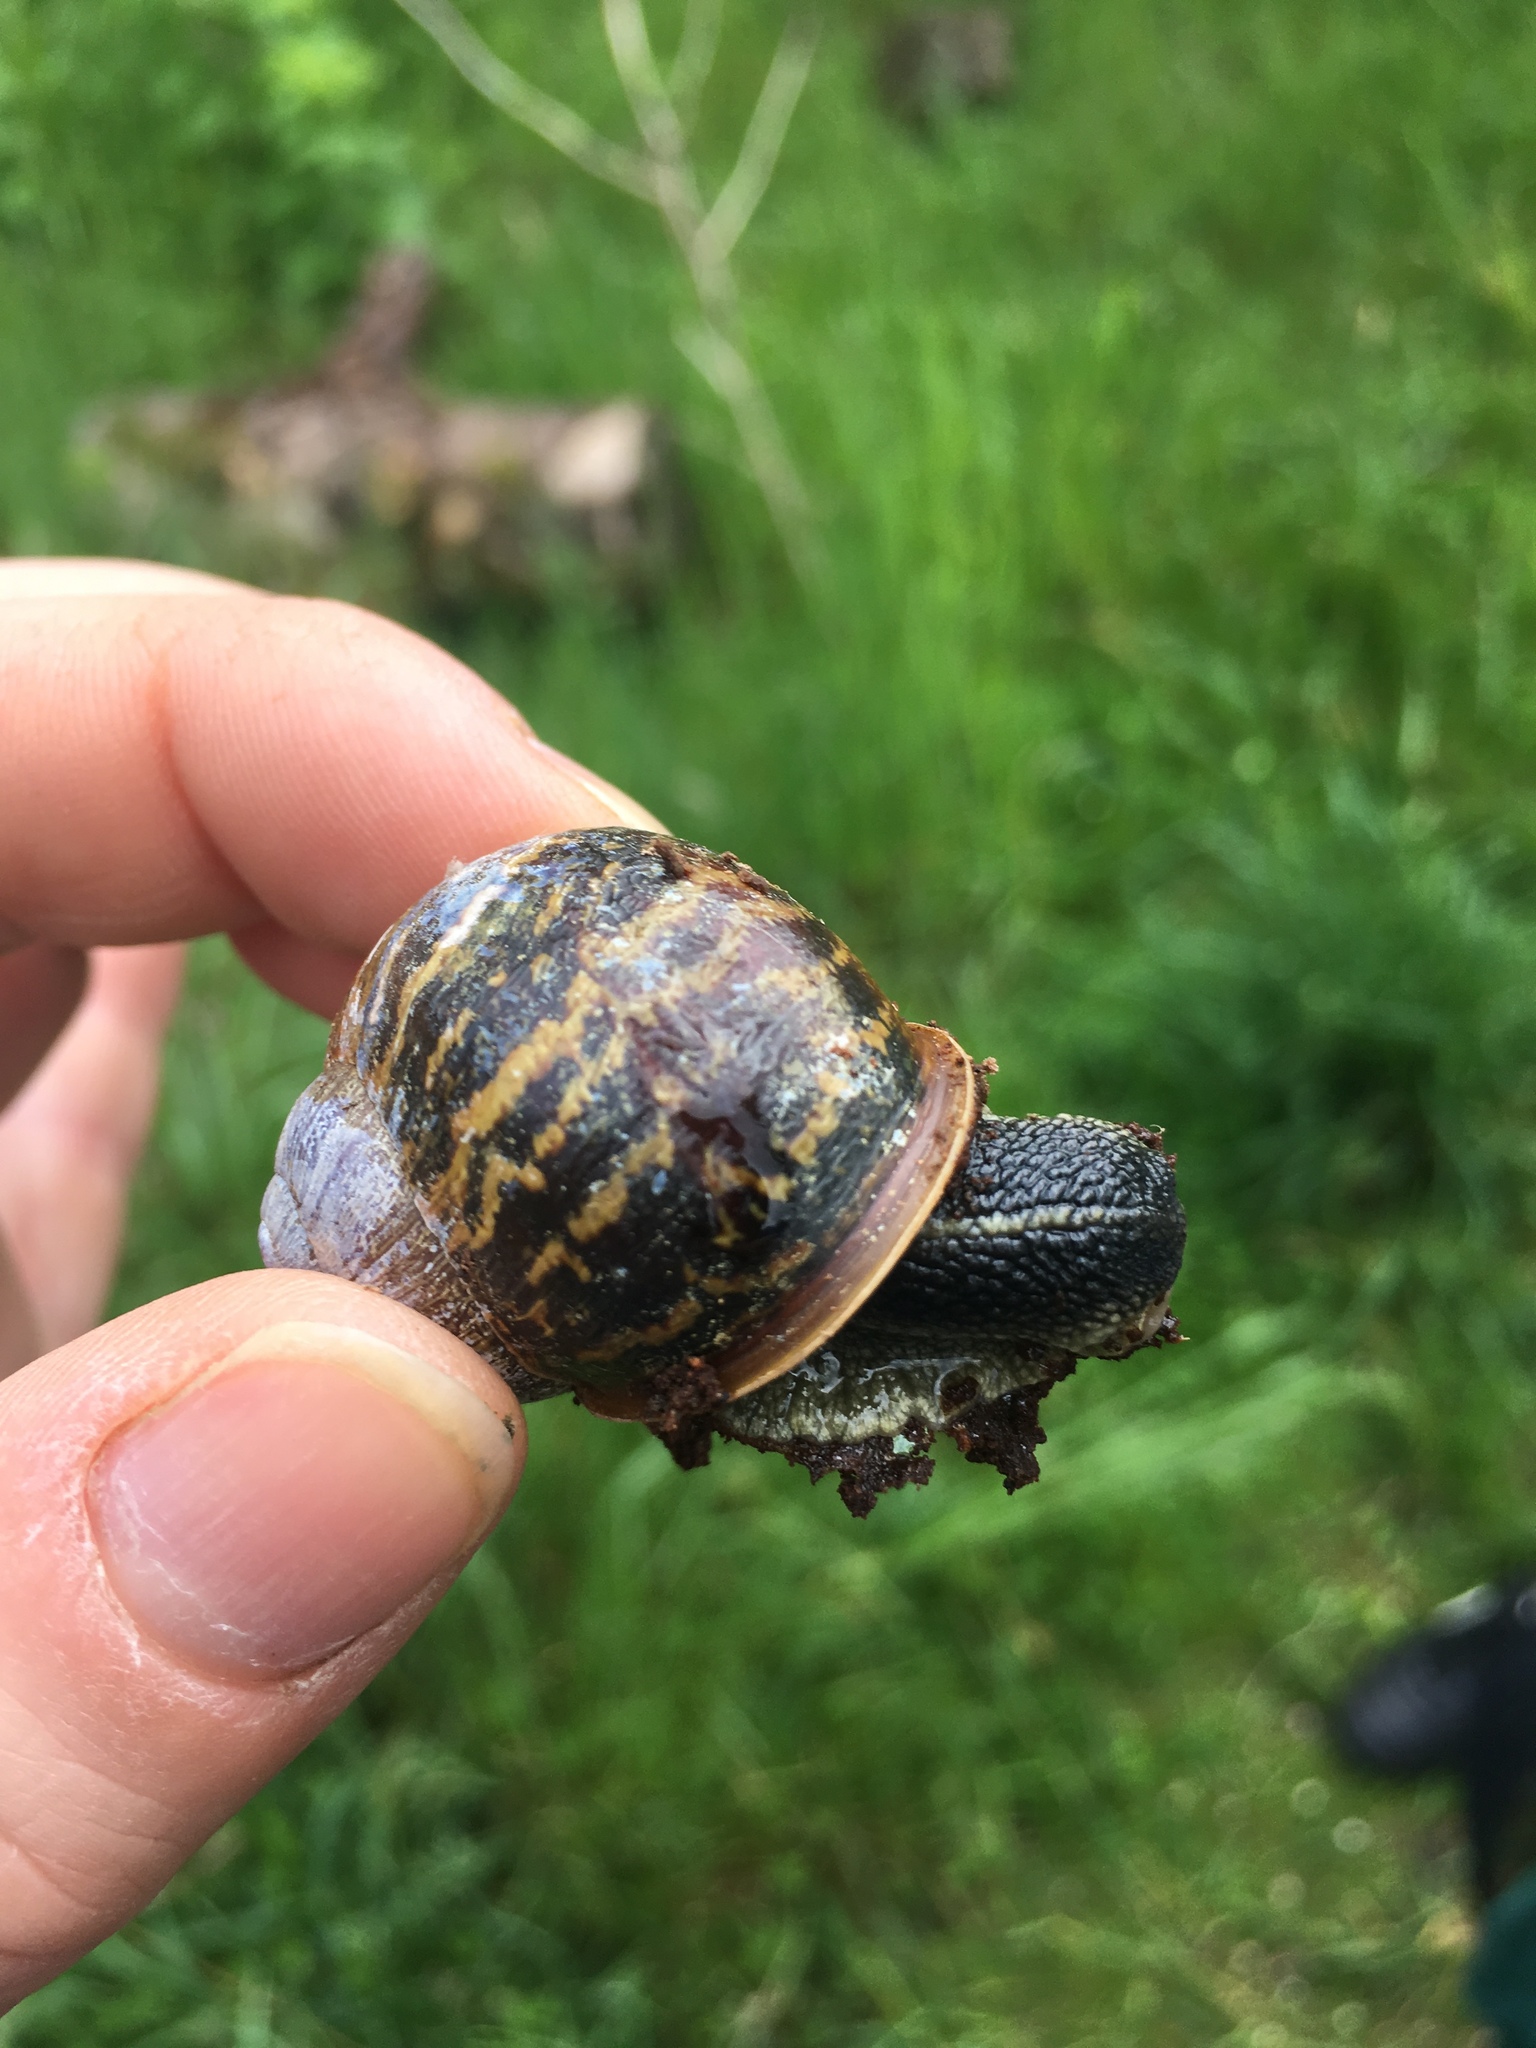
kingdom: Animalia
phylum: Mollusca
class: Gastropoda
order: Stylommatophora
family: Helicidae
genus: Cornu
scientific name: Cornu aspersum
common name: Brown garden snail
